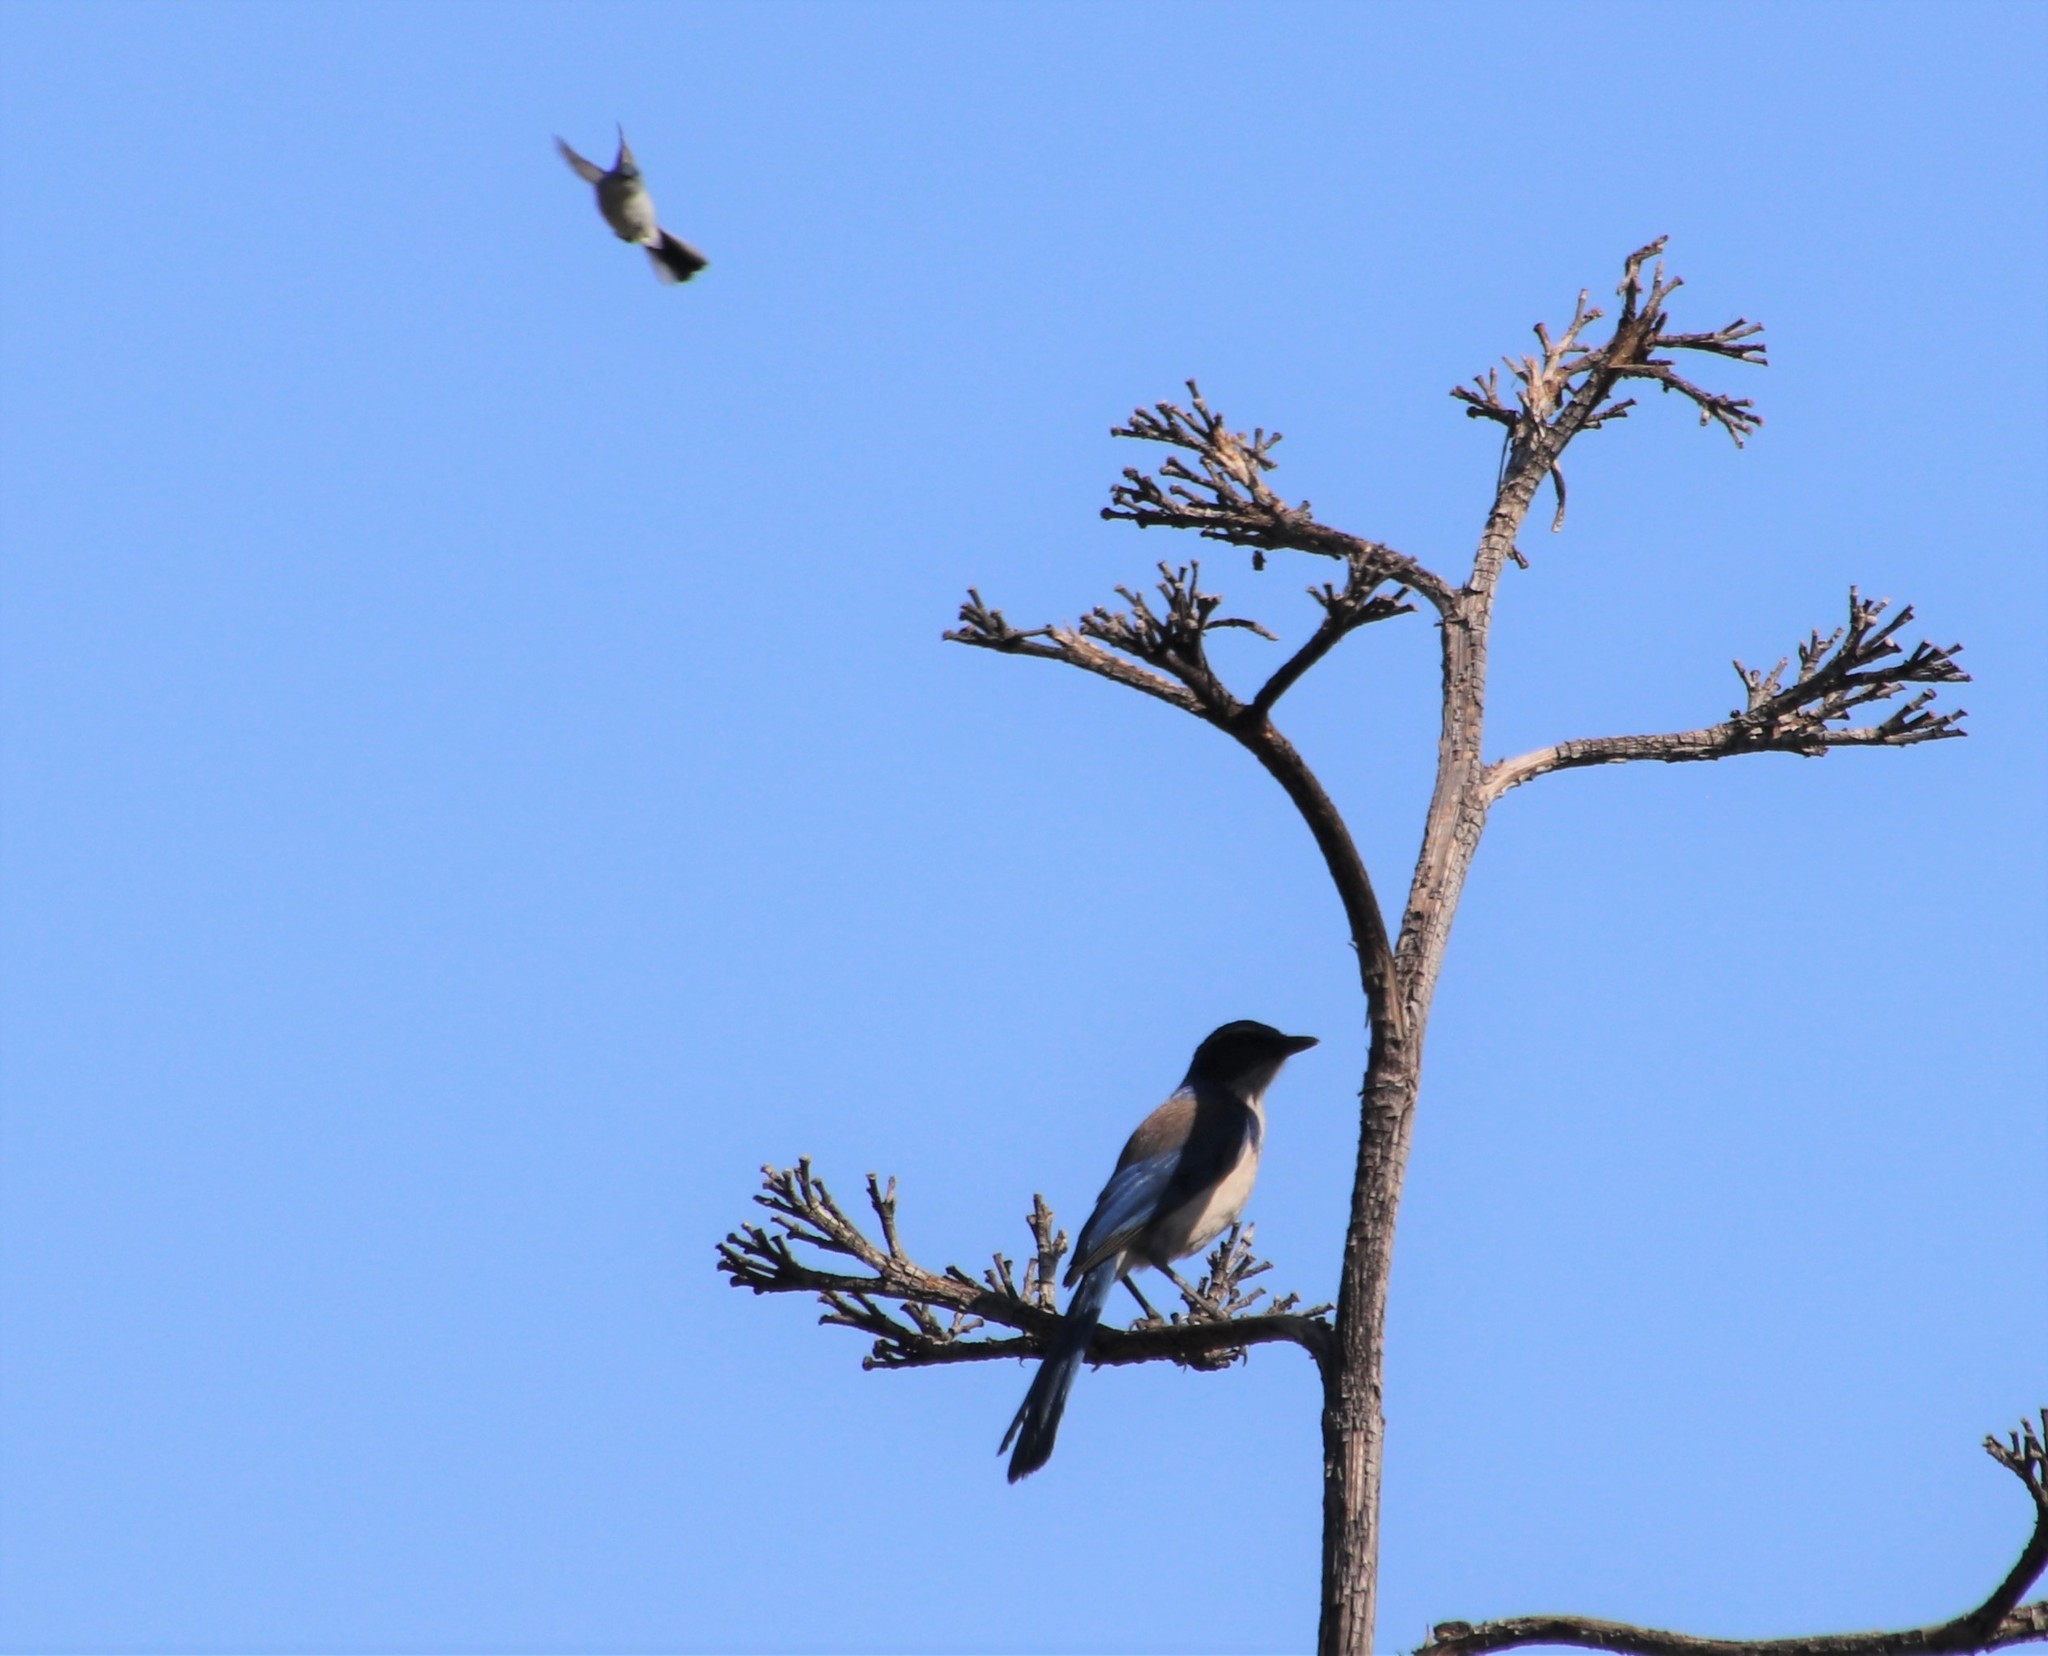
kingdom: Animalia
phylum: Chordata
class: Aves
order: Passeriformes
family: Corvidae
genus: Aphelocoma
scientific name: Aphelocoma californica
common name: California scrub-jay
